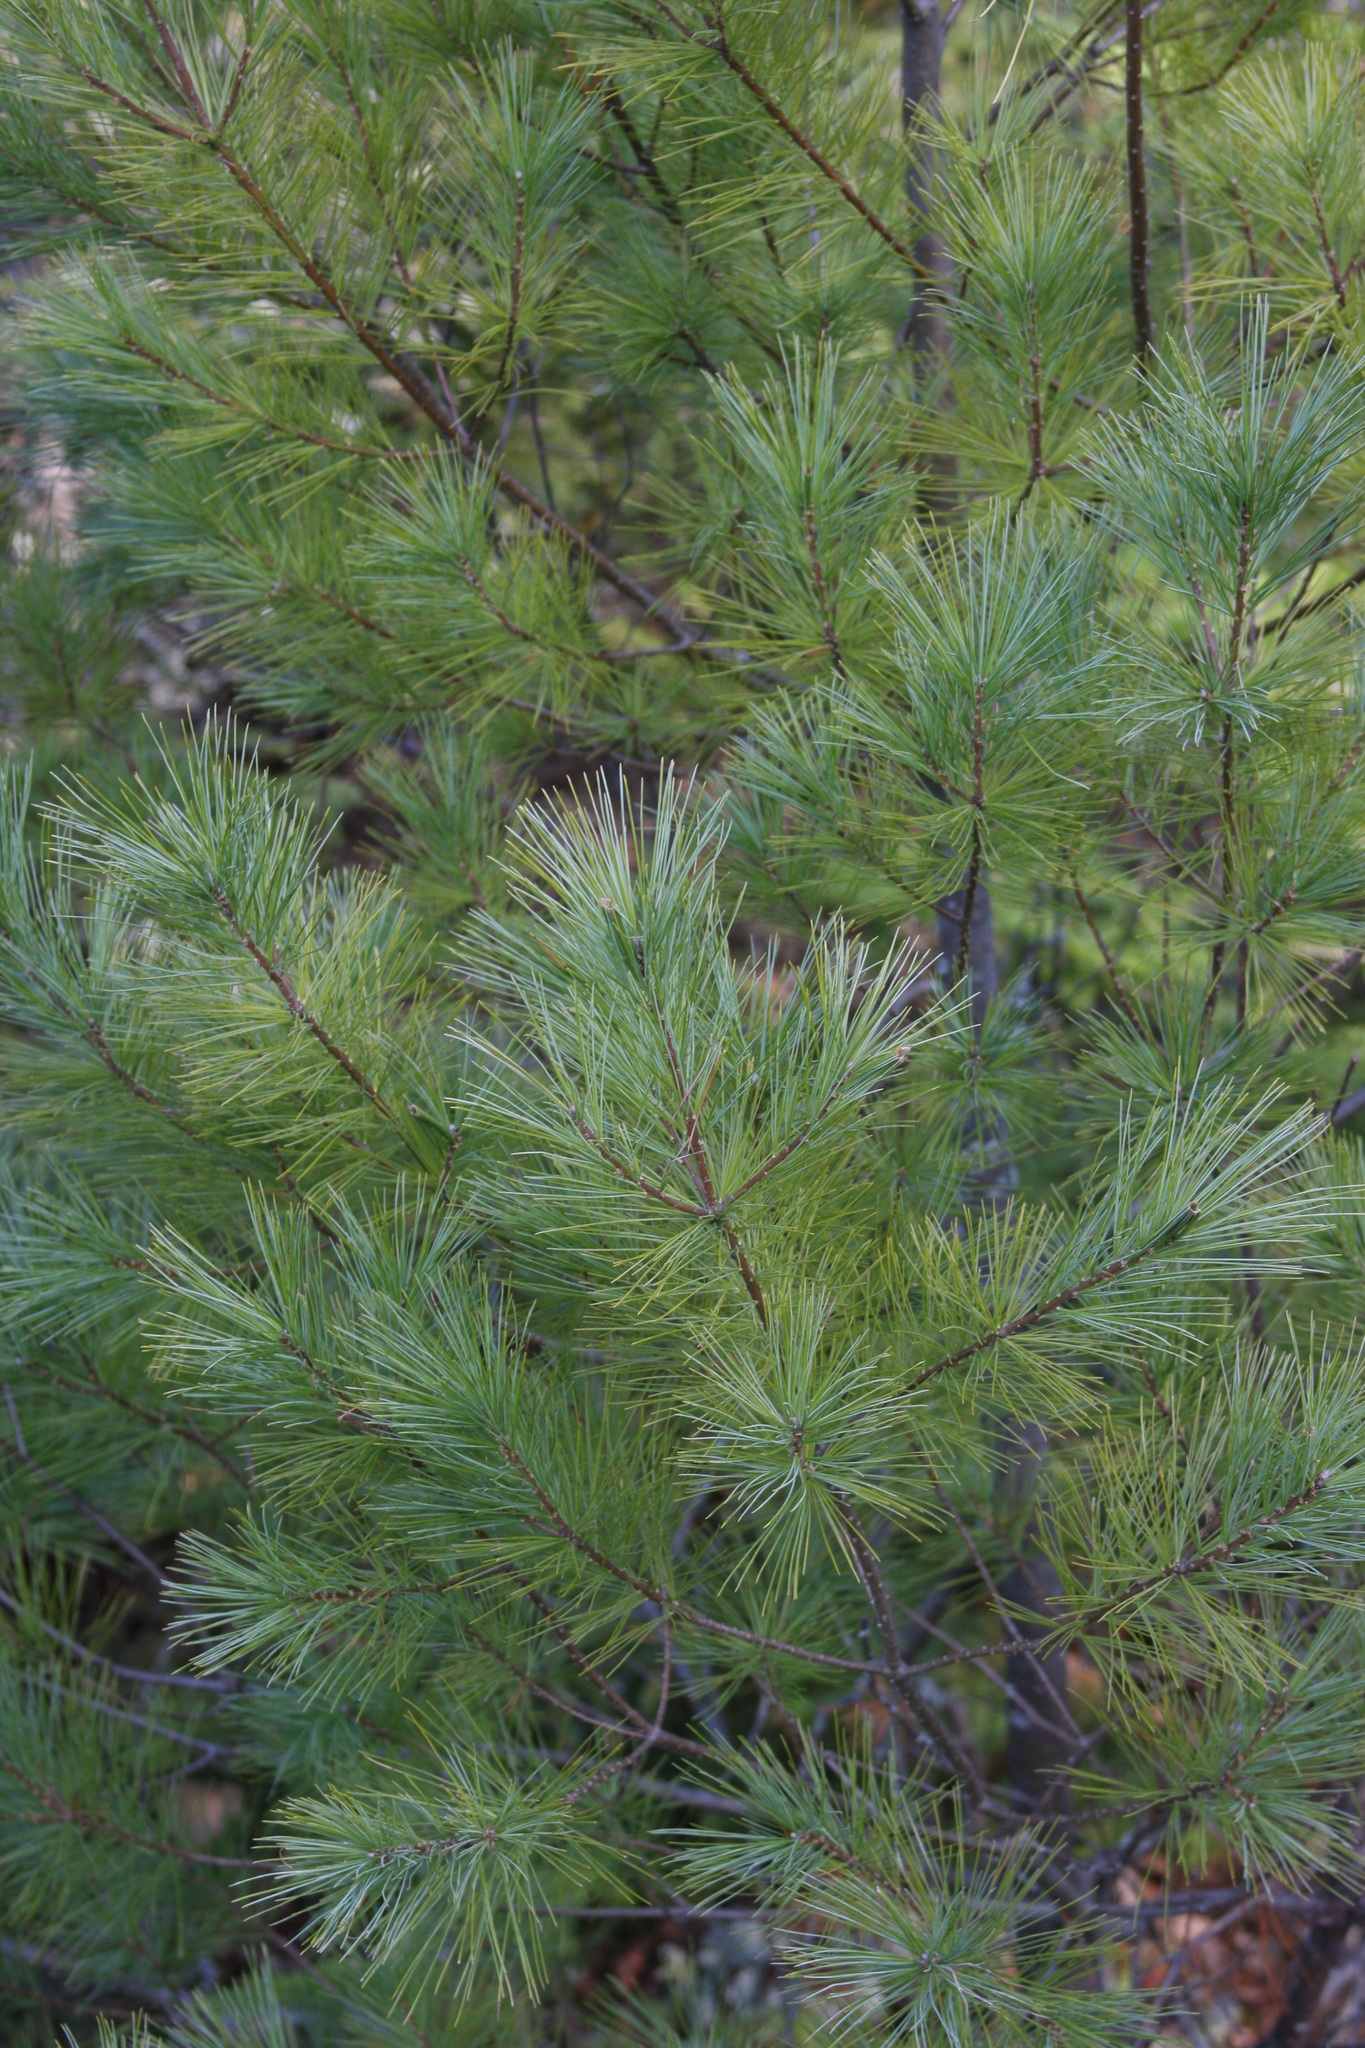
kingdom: Plantae
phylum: Tracheophyta
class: Pinopsida
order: Pinales
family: Pinaceae
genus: Pinus
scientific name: Pinus strobus
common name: Weymouth pine
